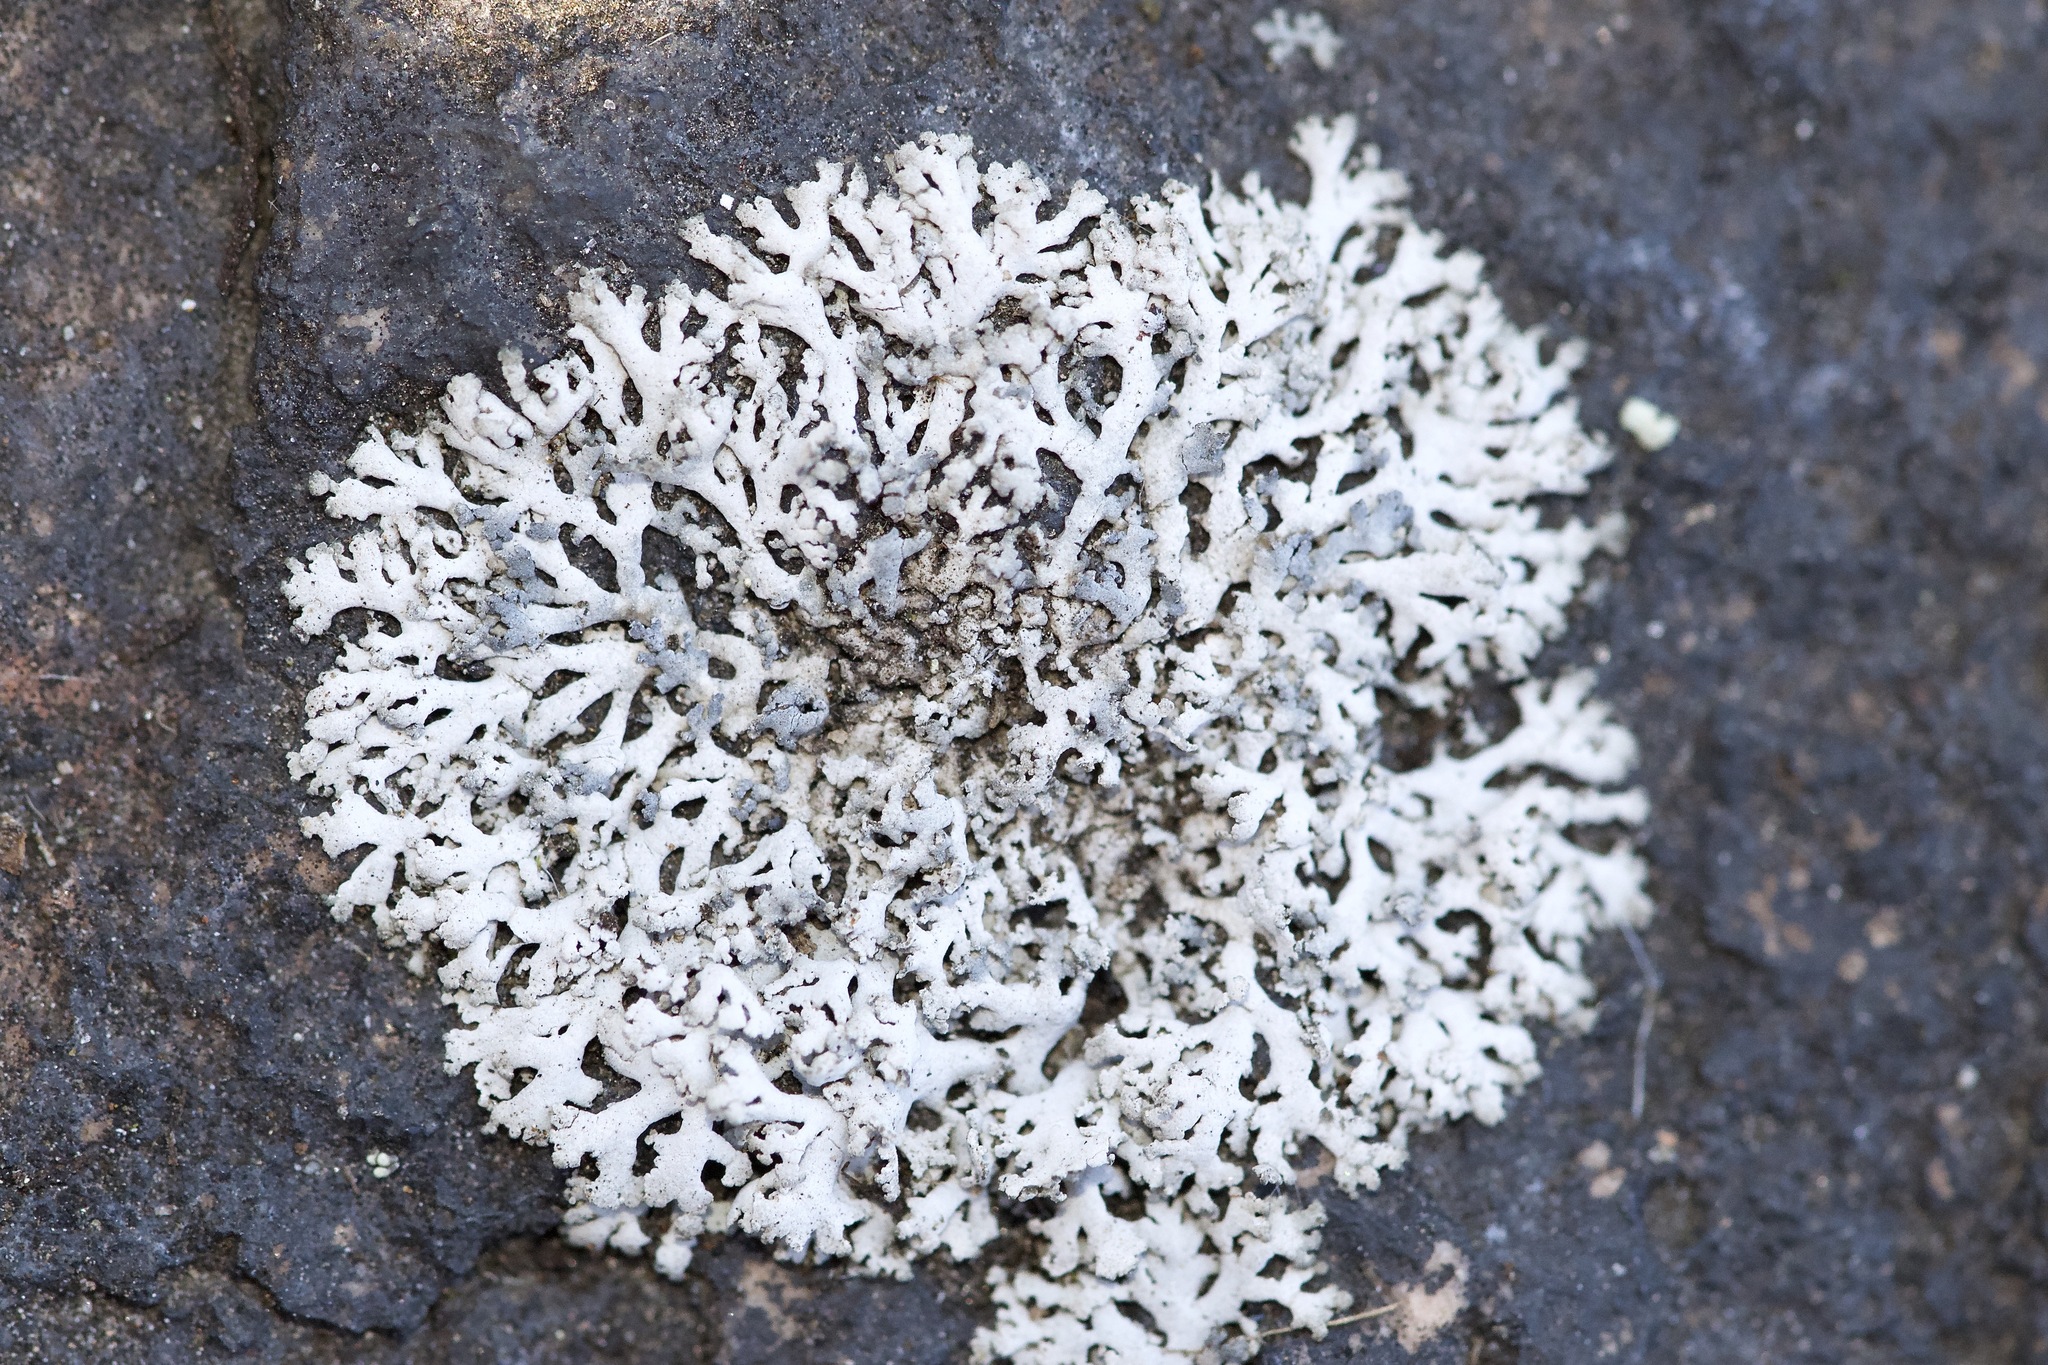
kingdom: Fungi
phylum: Ascomycota
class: Lecanoromycetes
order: Caliciales
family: Physciaceae
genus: Physcia
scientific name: Physcia thomsoniana
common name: Thomson's rosette lichen
